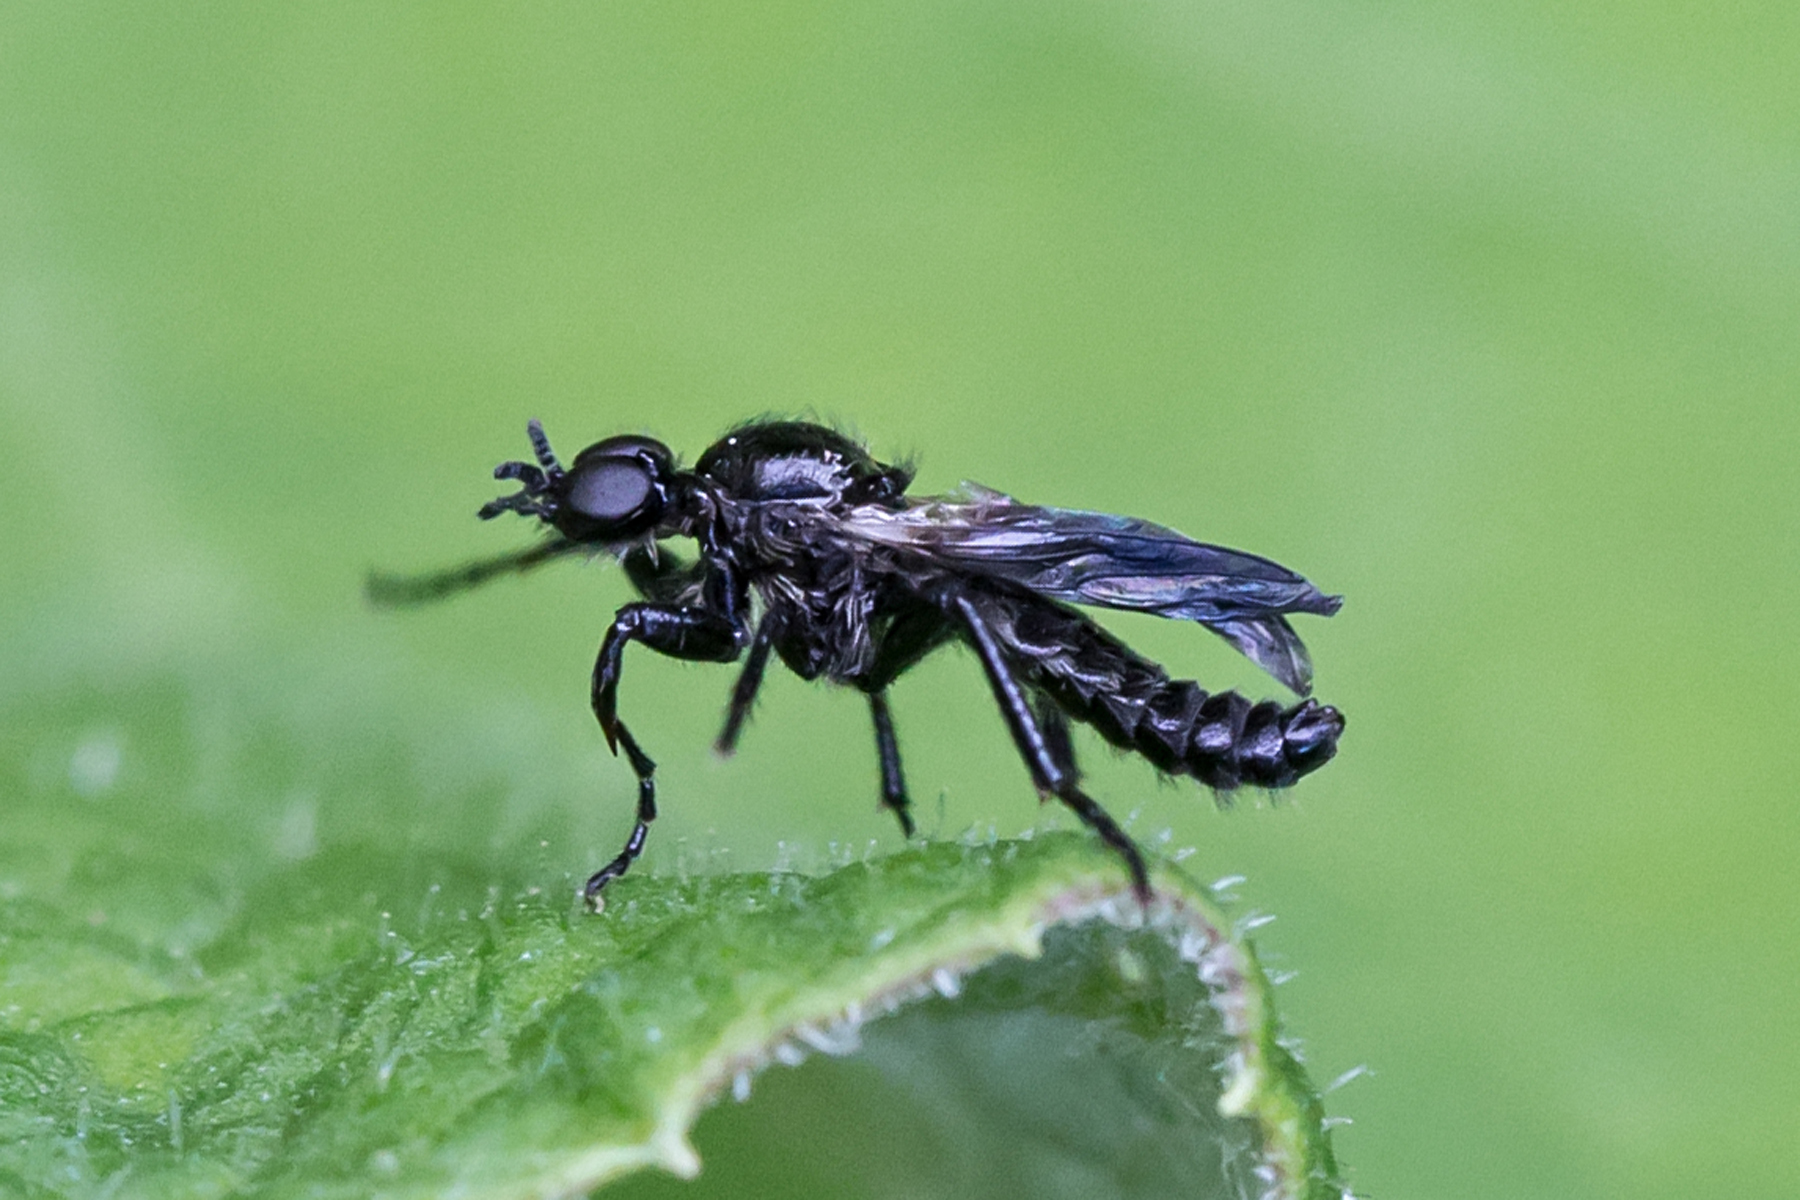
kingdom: Animalia
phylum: Arthropoda
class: Insecta
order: Diptera
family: Bibionidae
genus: Bibio
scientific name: Bibio albipennis
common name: White-winged march fly
